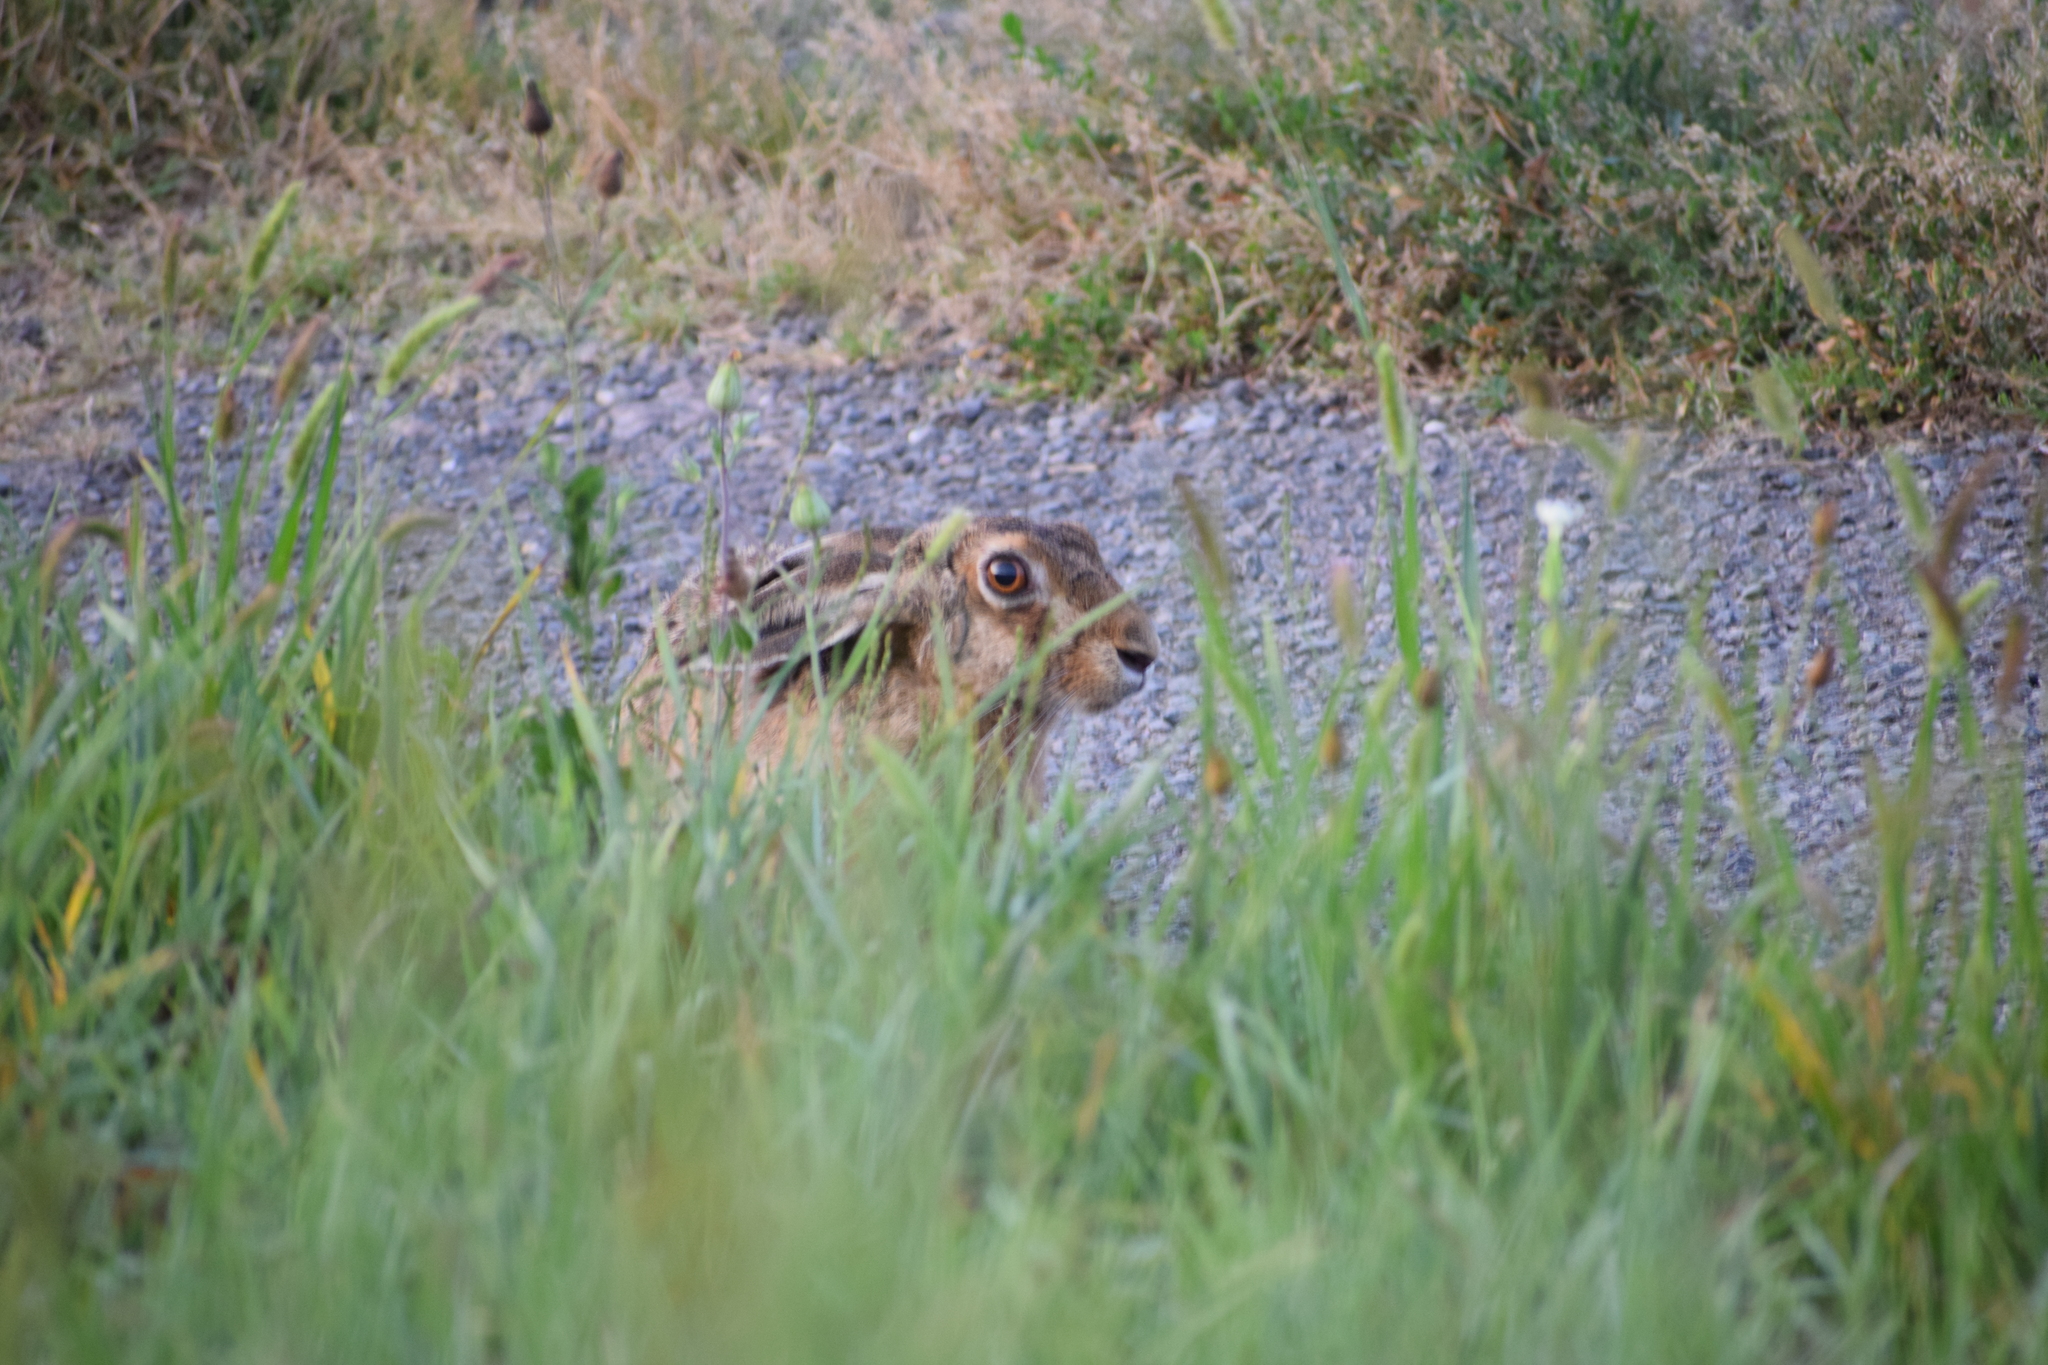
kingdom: Animalia
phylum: Chordata
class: Mammalia
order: Lagomorpha
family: Leporidae
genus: Lepus
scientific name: Lepus europaeus
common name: European hare
